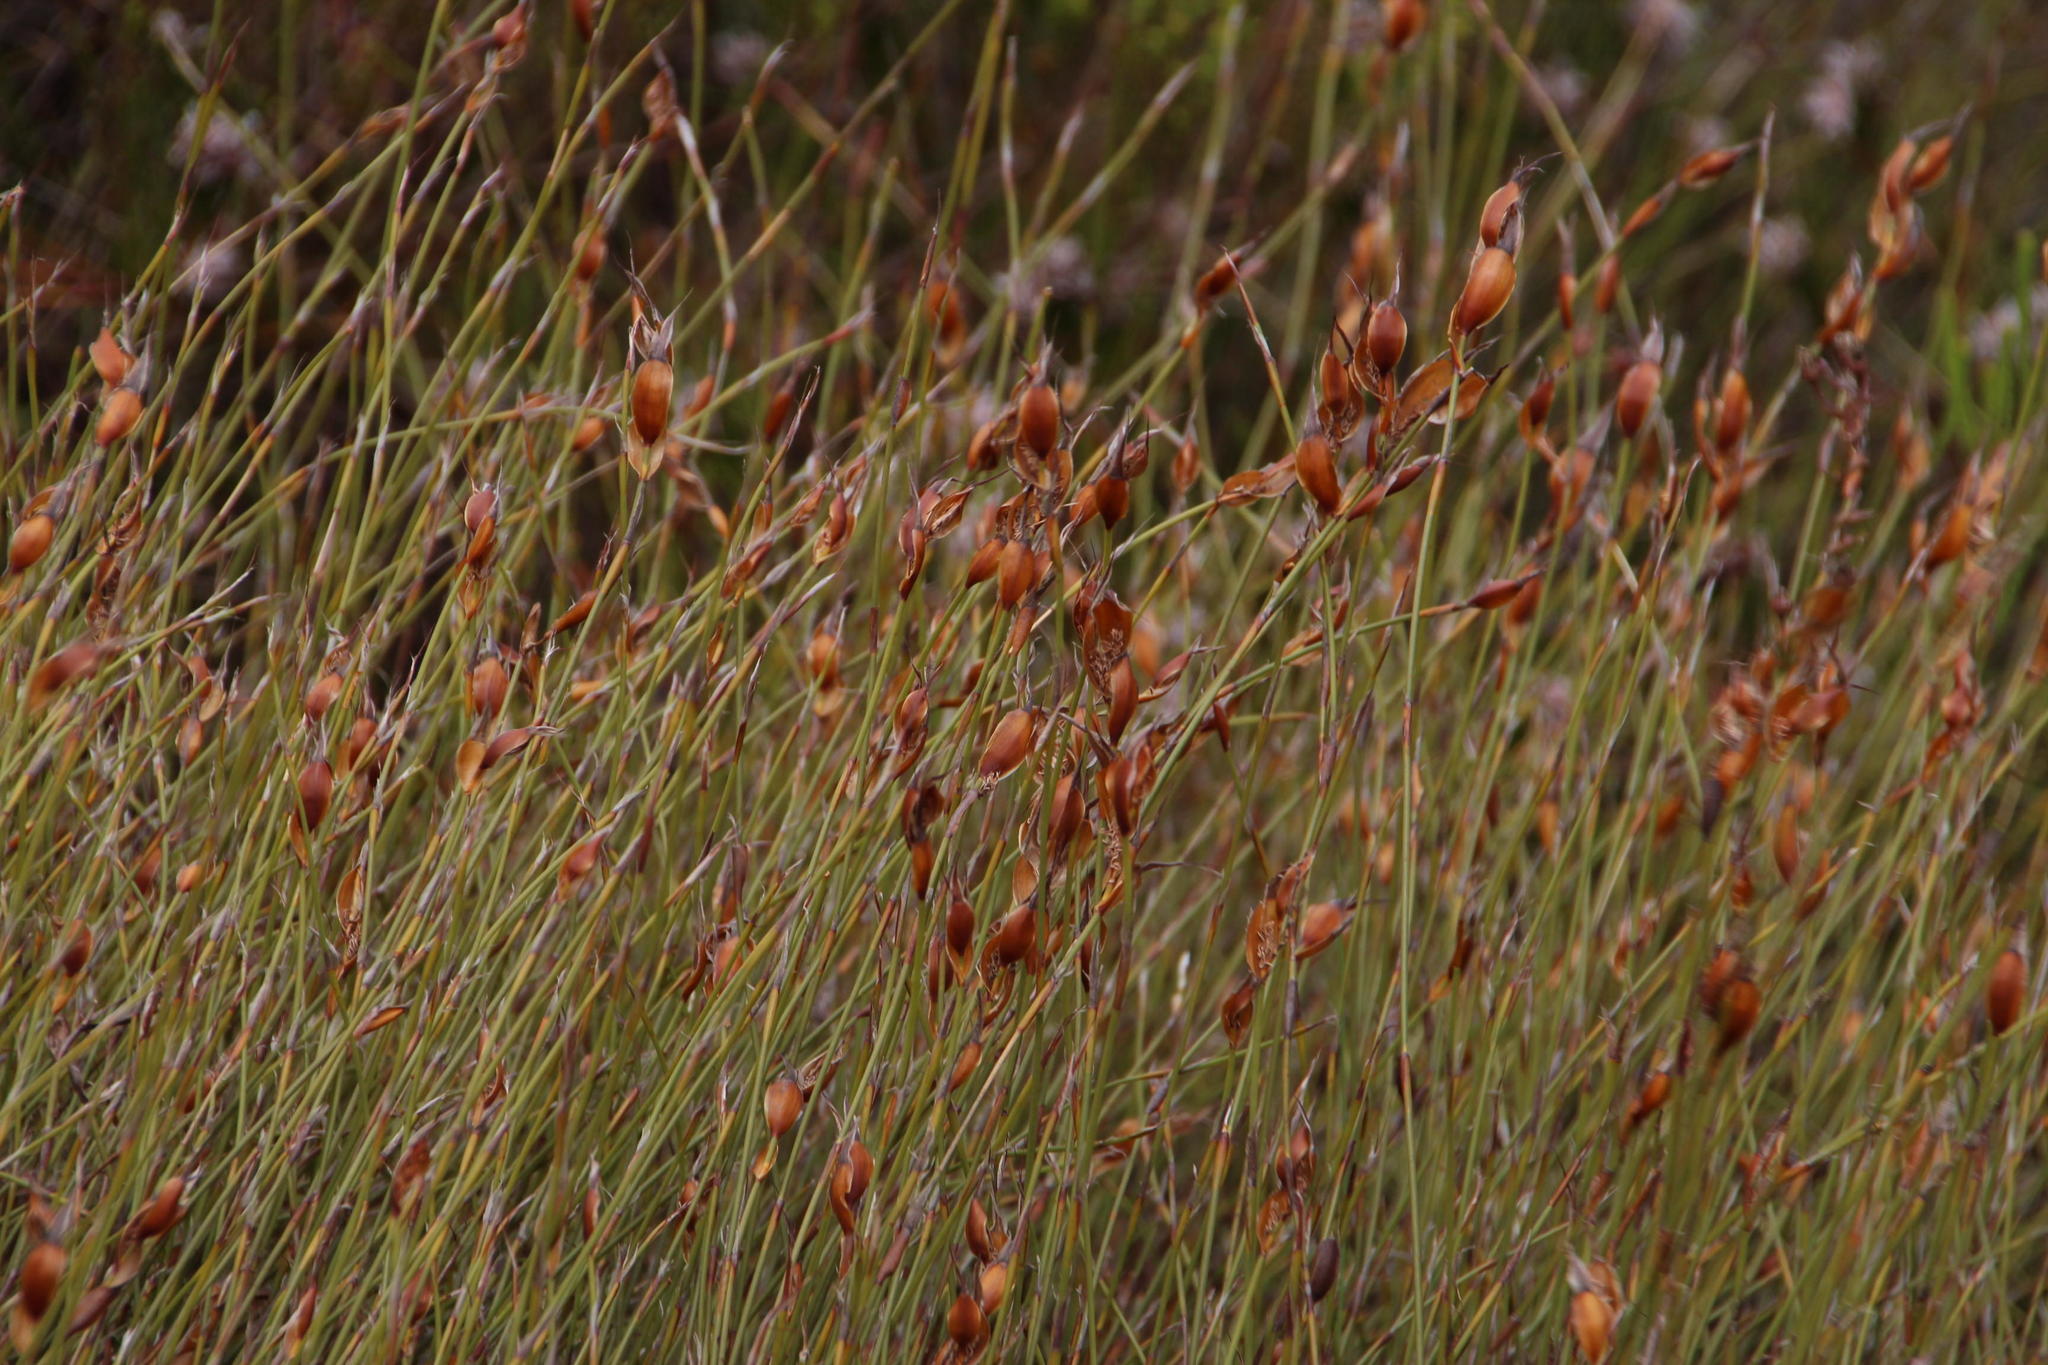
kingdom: Plantae
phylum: Tracheophyta
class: Liliopsida
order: Poales
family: Restionaceae
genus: Willdenowia
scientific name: Willdenowia glomerata
